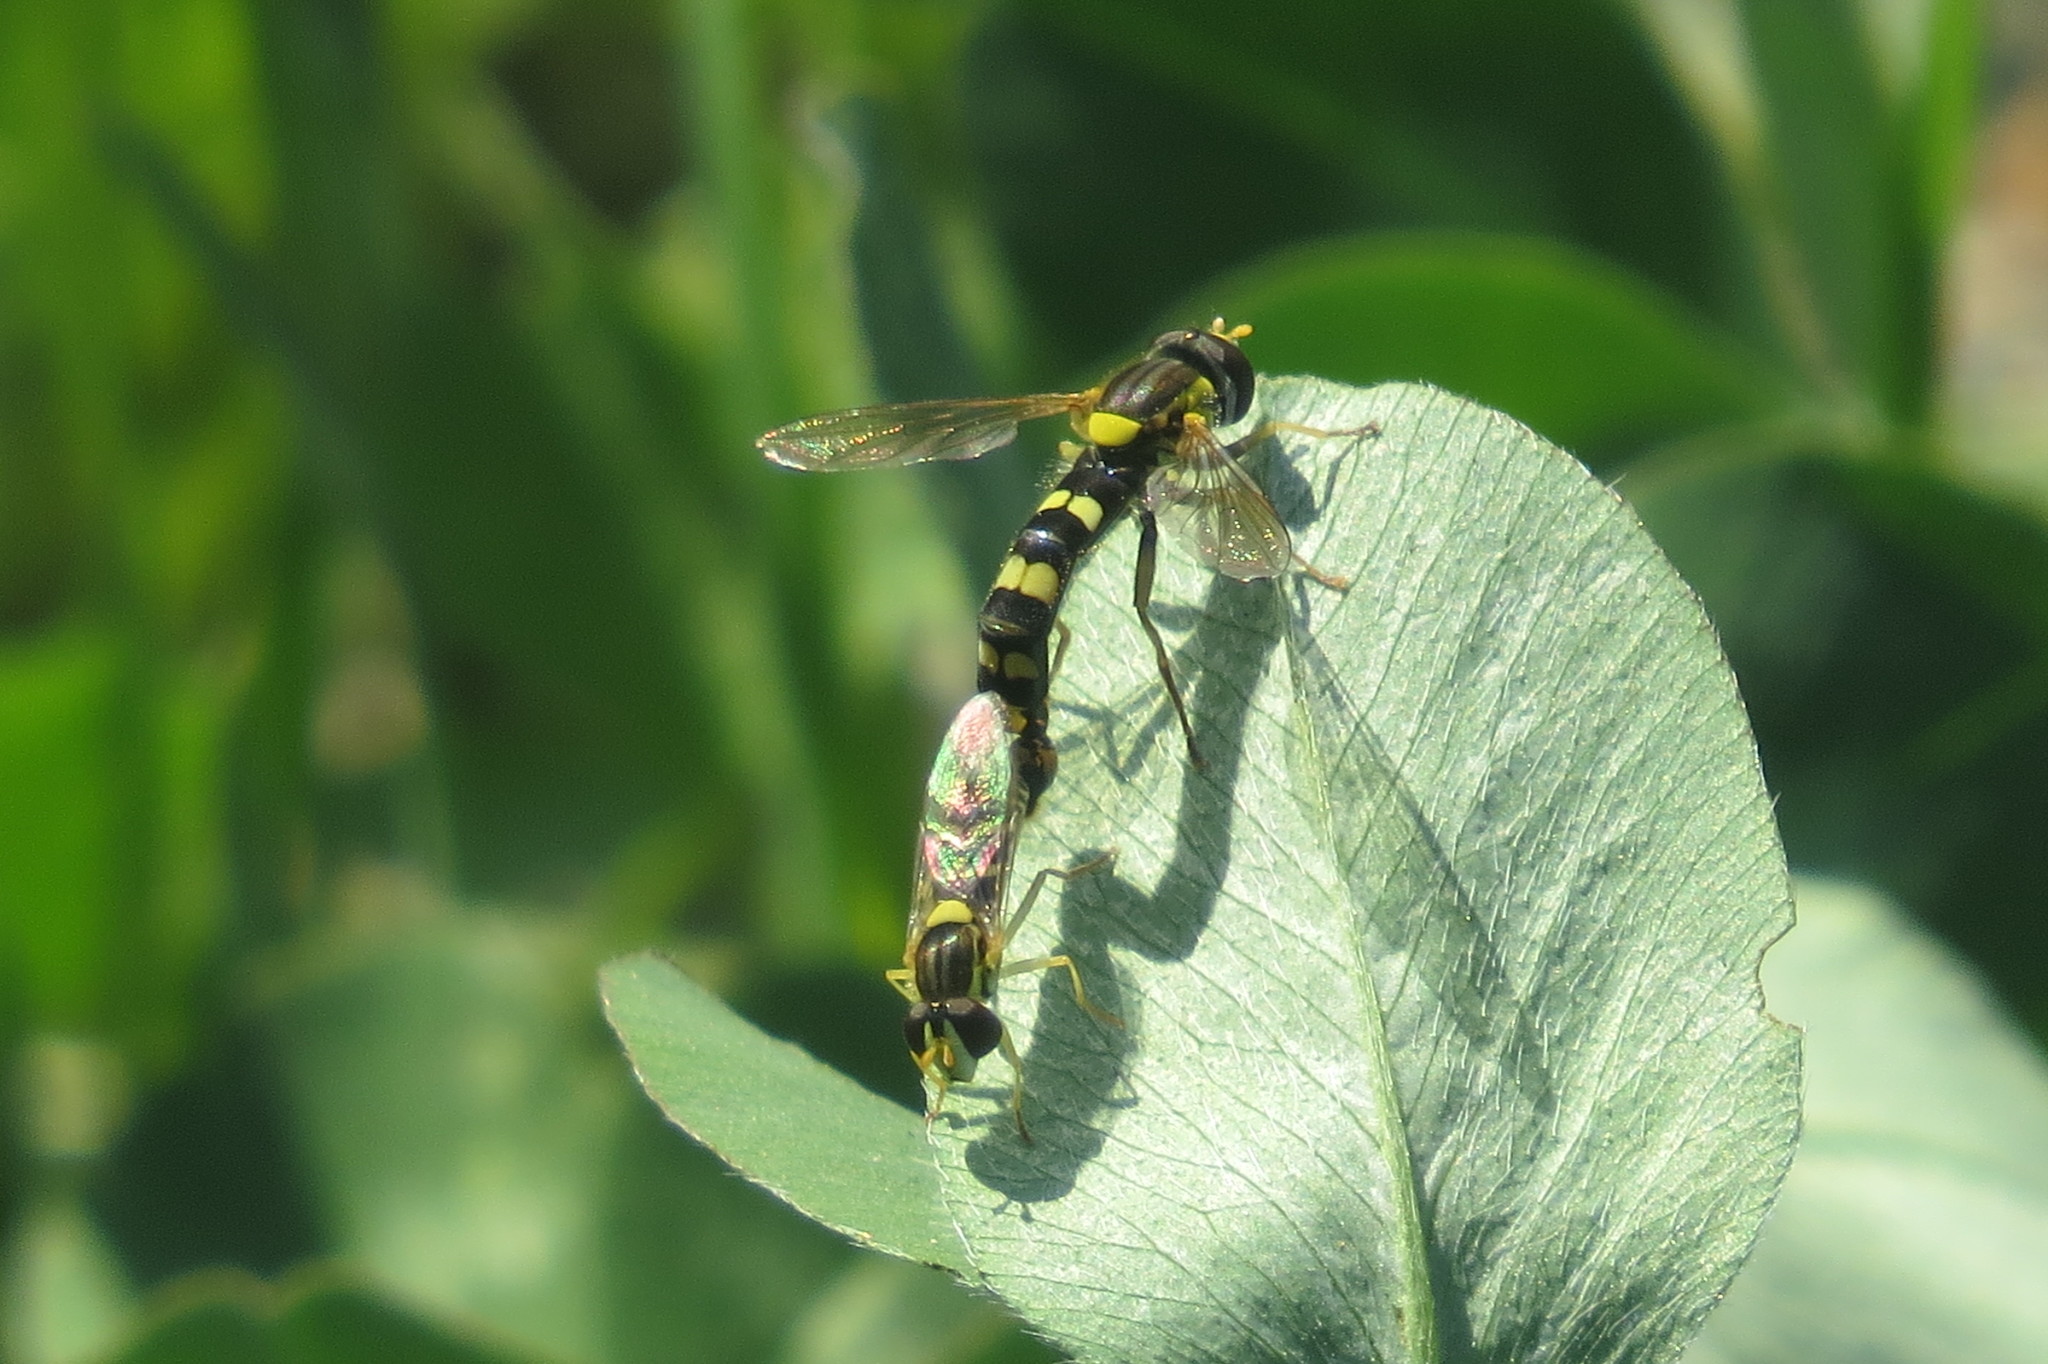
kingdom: Animalia
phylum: Arthropoda
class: Insecta
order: Diptera
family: Syrphidae
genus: Sphaerophoria
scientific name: Sphaerophoria
